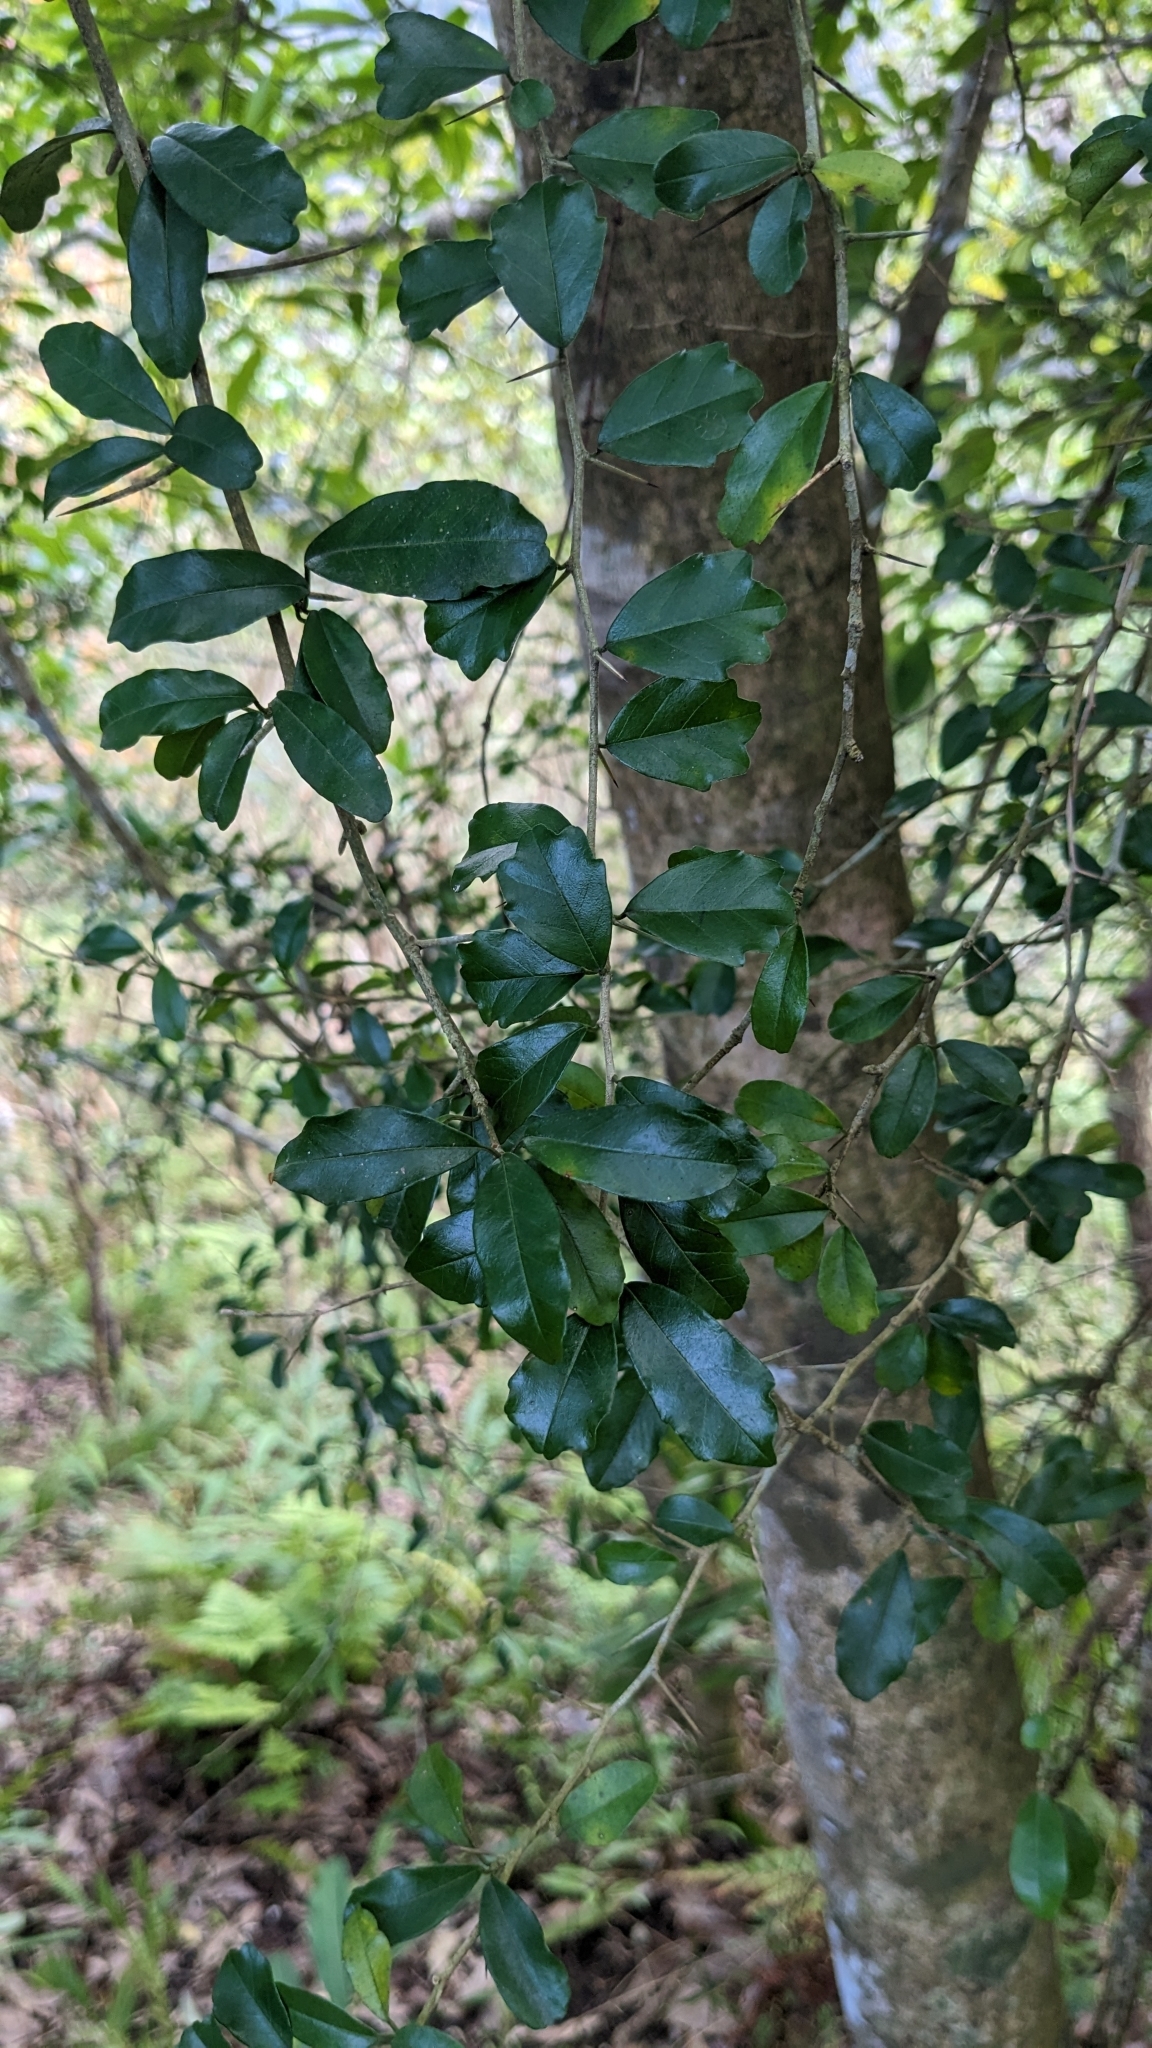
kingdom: Plantae
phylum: Tracheophyta
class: Magnoliopsida
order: Rosales
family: Moraceae
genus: Maclura
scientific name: Maclura cochinchinensis
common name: Cockspurthorn
